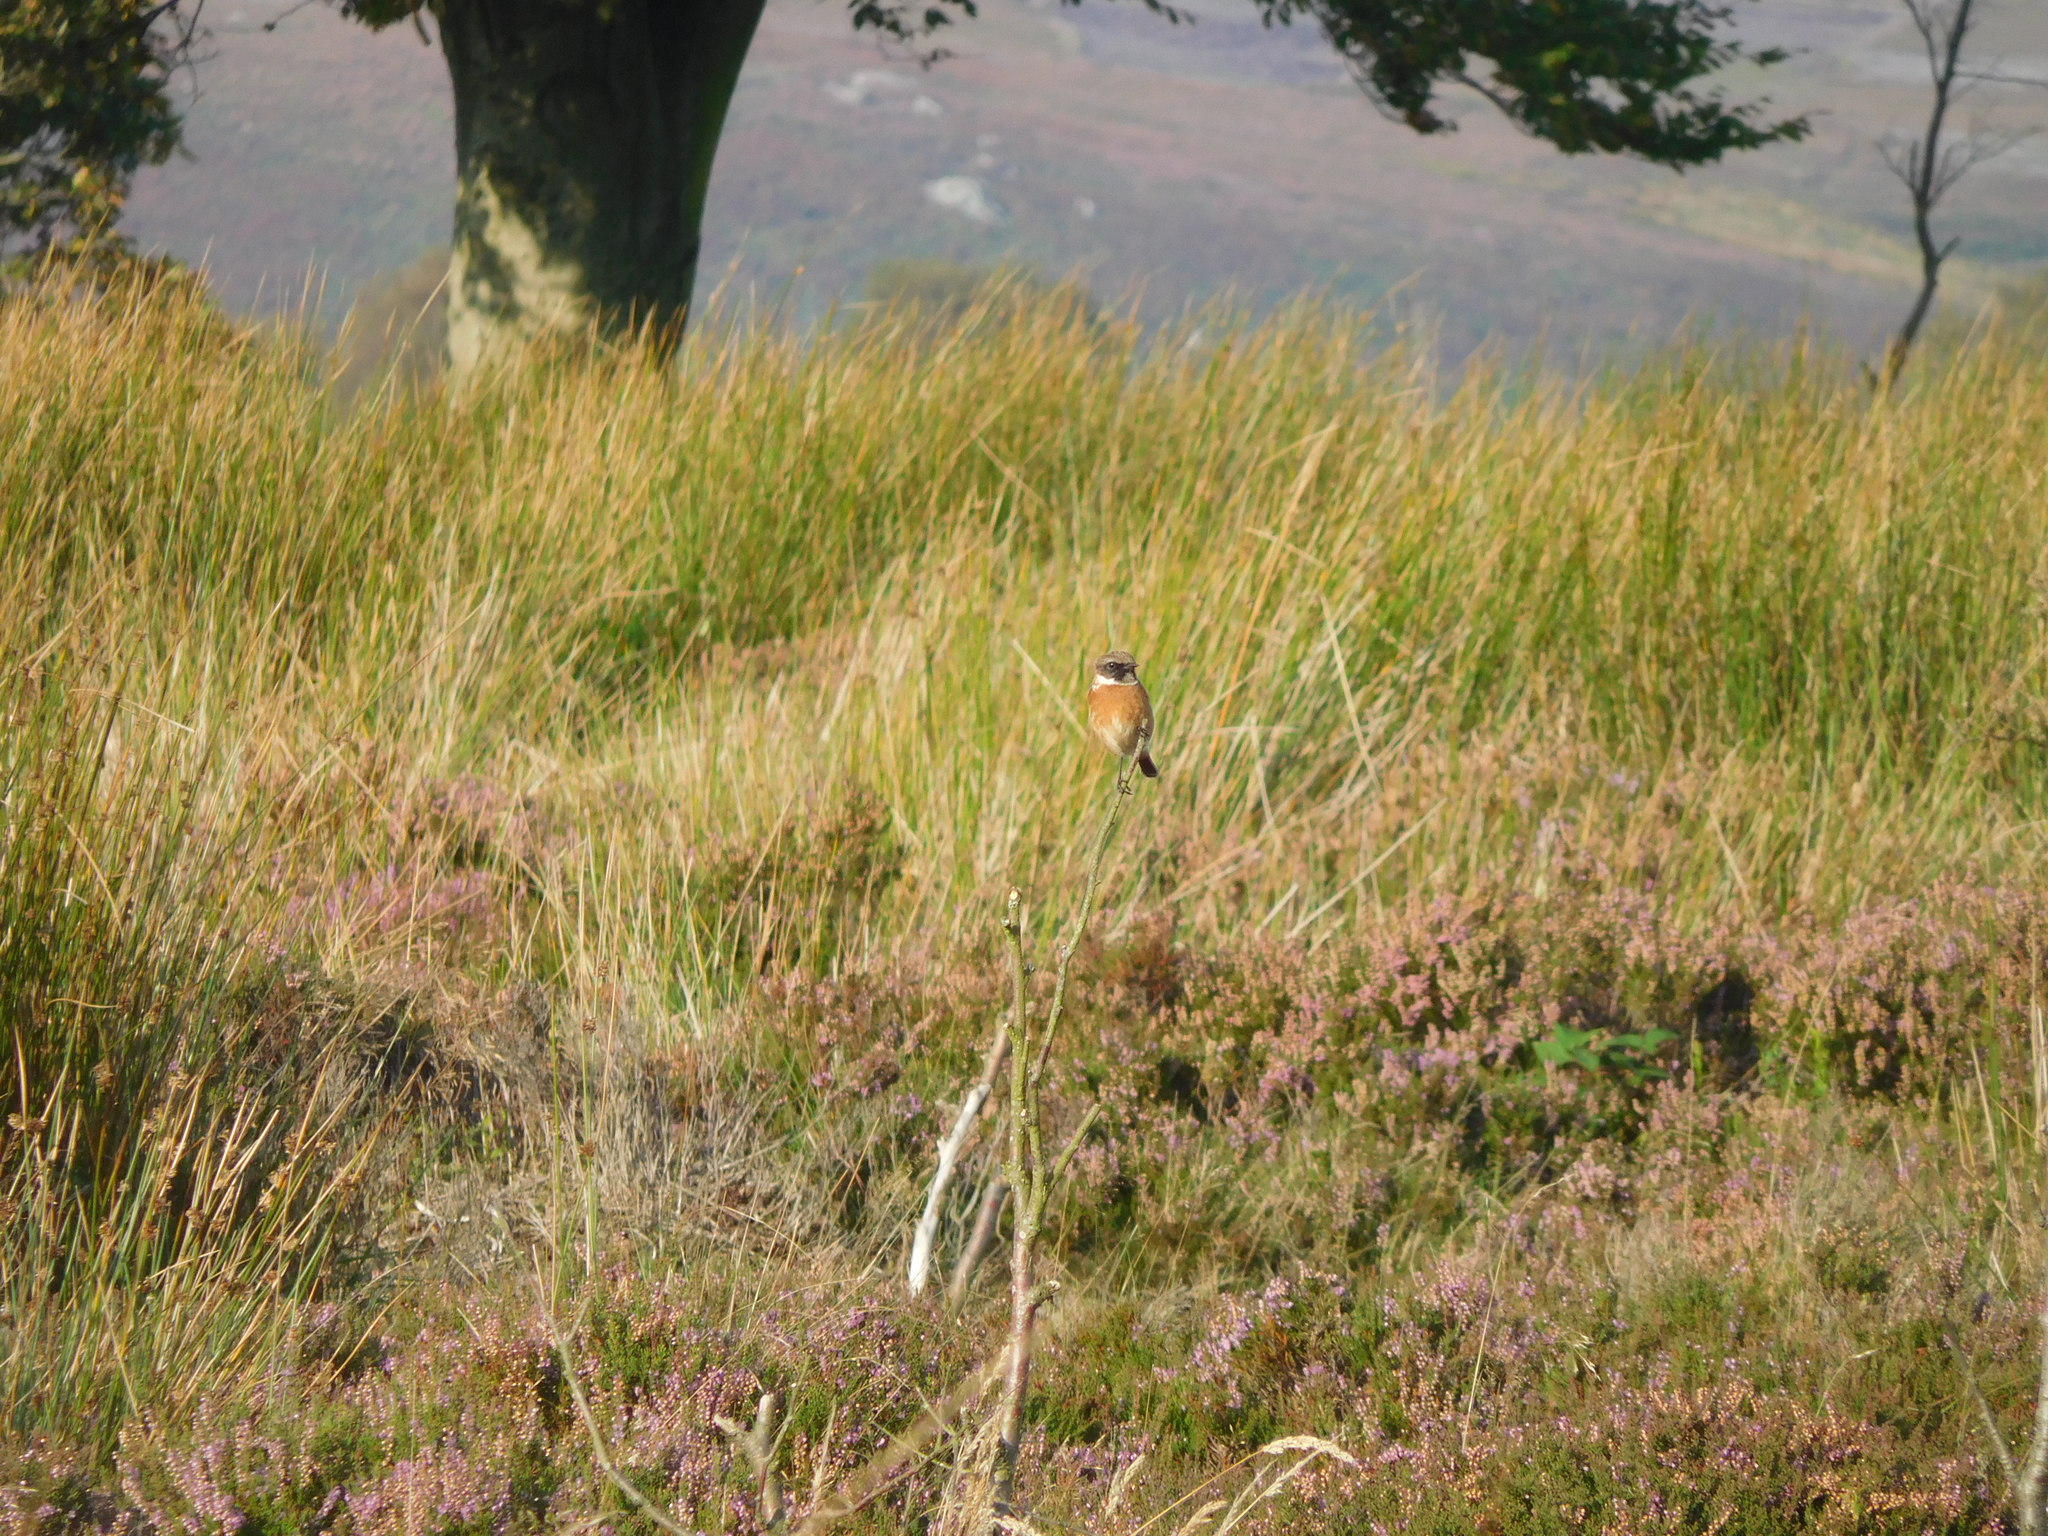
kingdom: Animalia
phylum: Chordata
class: Aves
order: Passeriformes
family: Muscicapidae
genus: Saxicola
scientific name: Saxicola rubicola
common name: European stonechat
